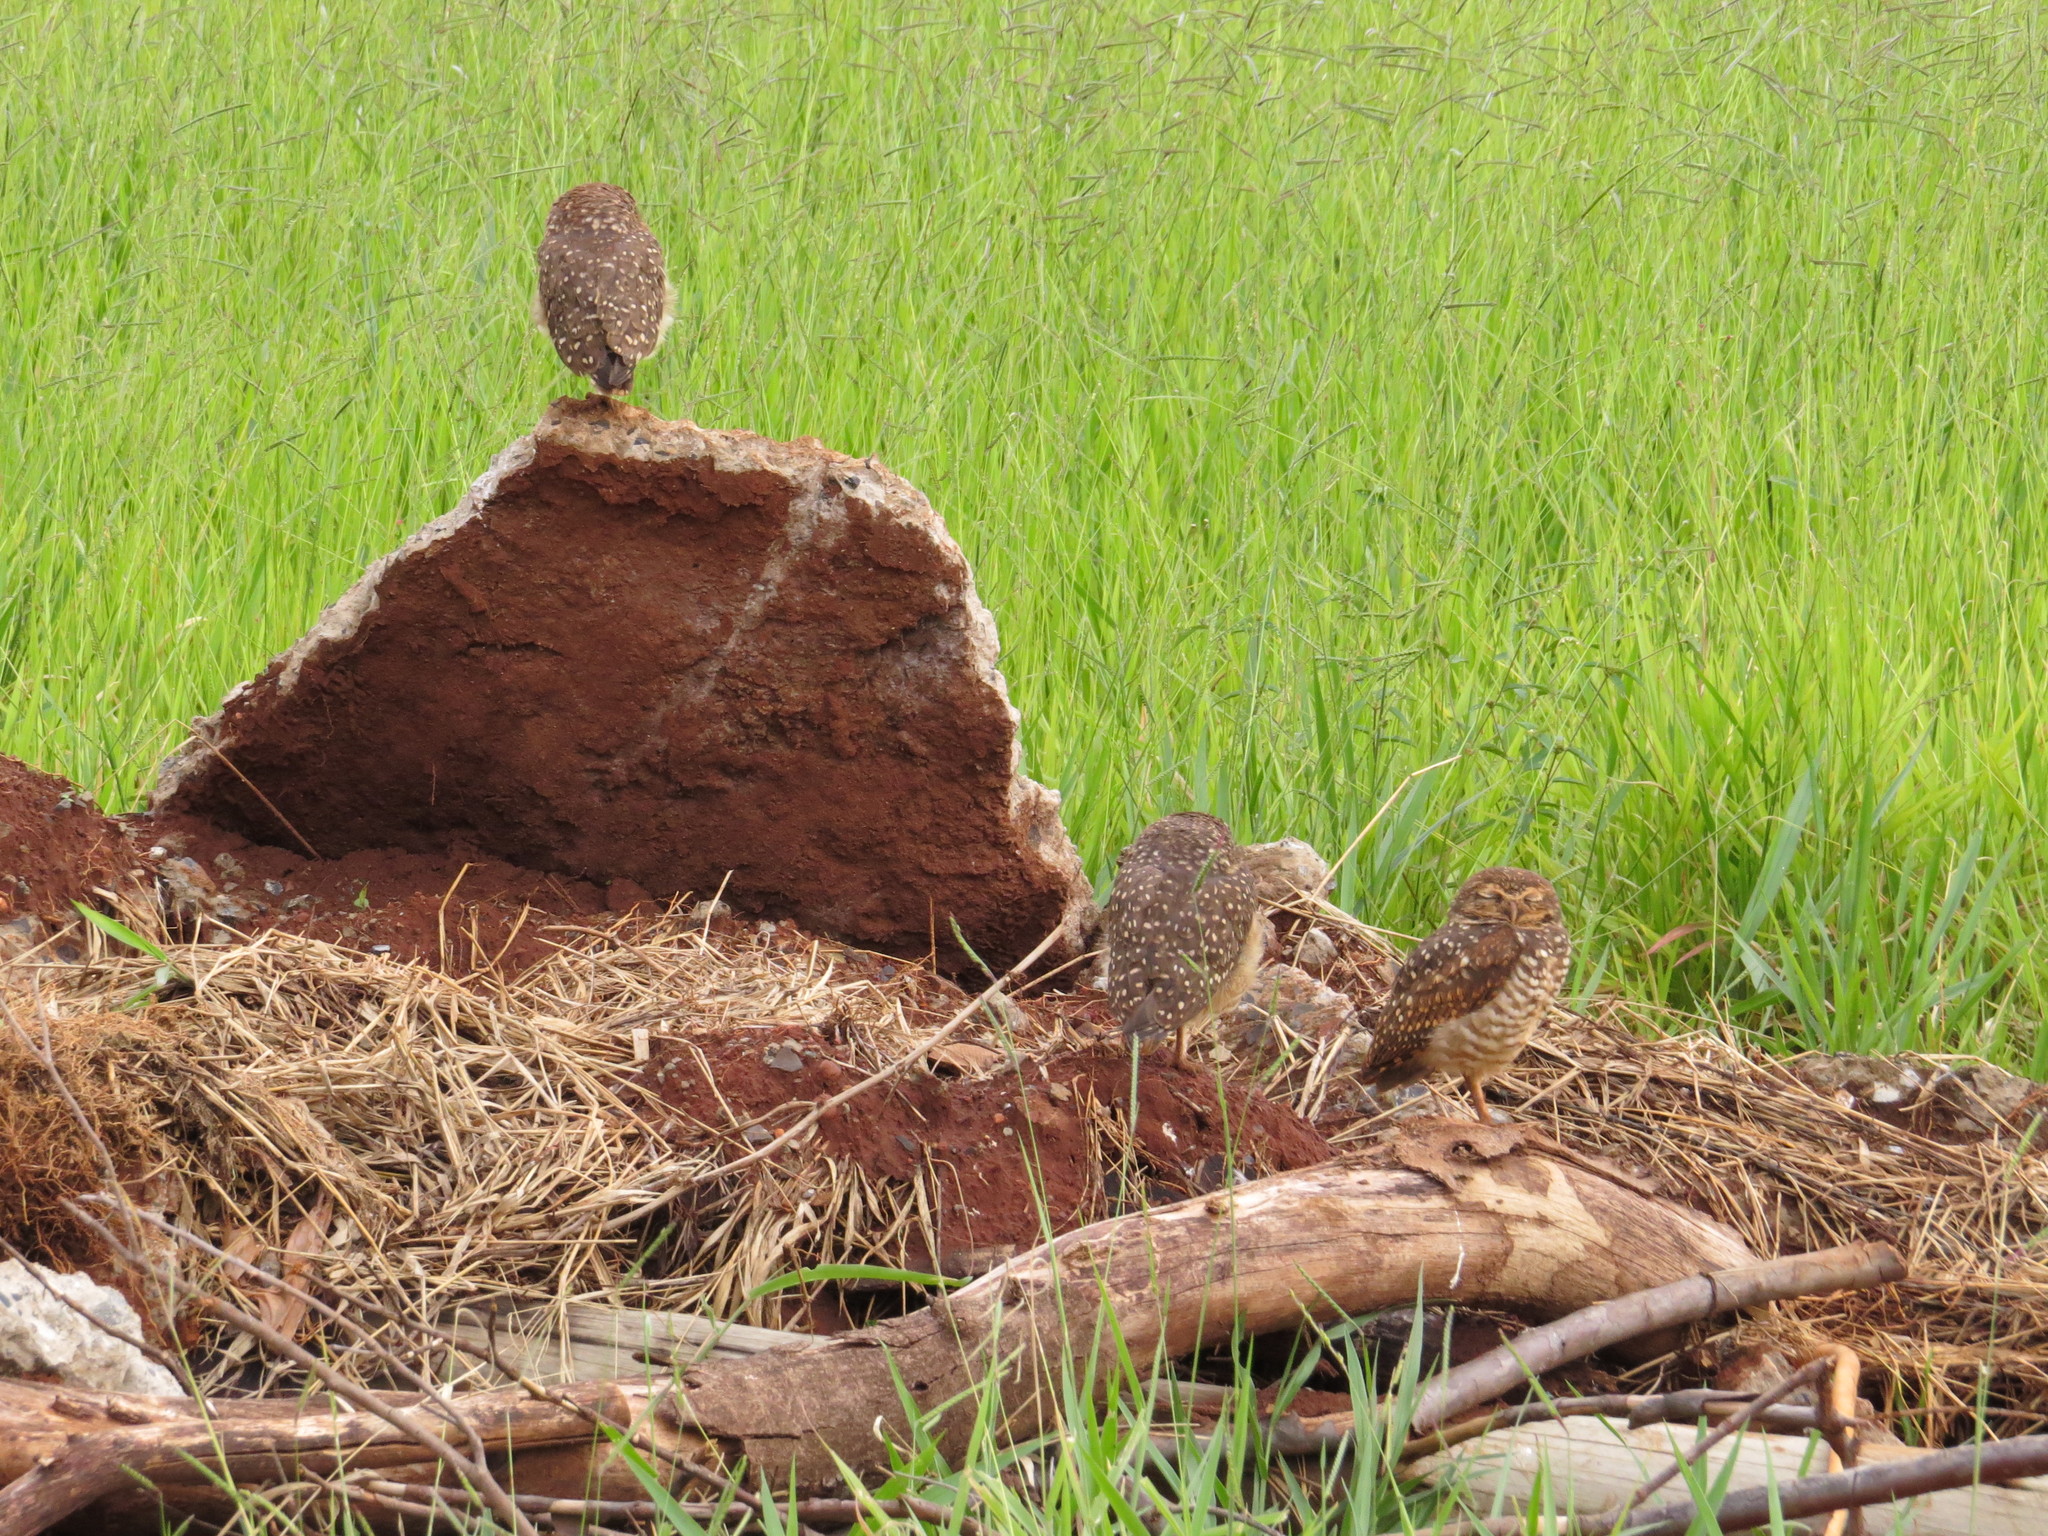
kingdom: Animalia
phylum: Chordata
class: Aves
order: Strigiformes
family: Strigidae
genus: Athene
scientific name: Athene cunicularia
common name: Burrowing owl
